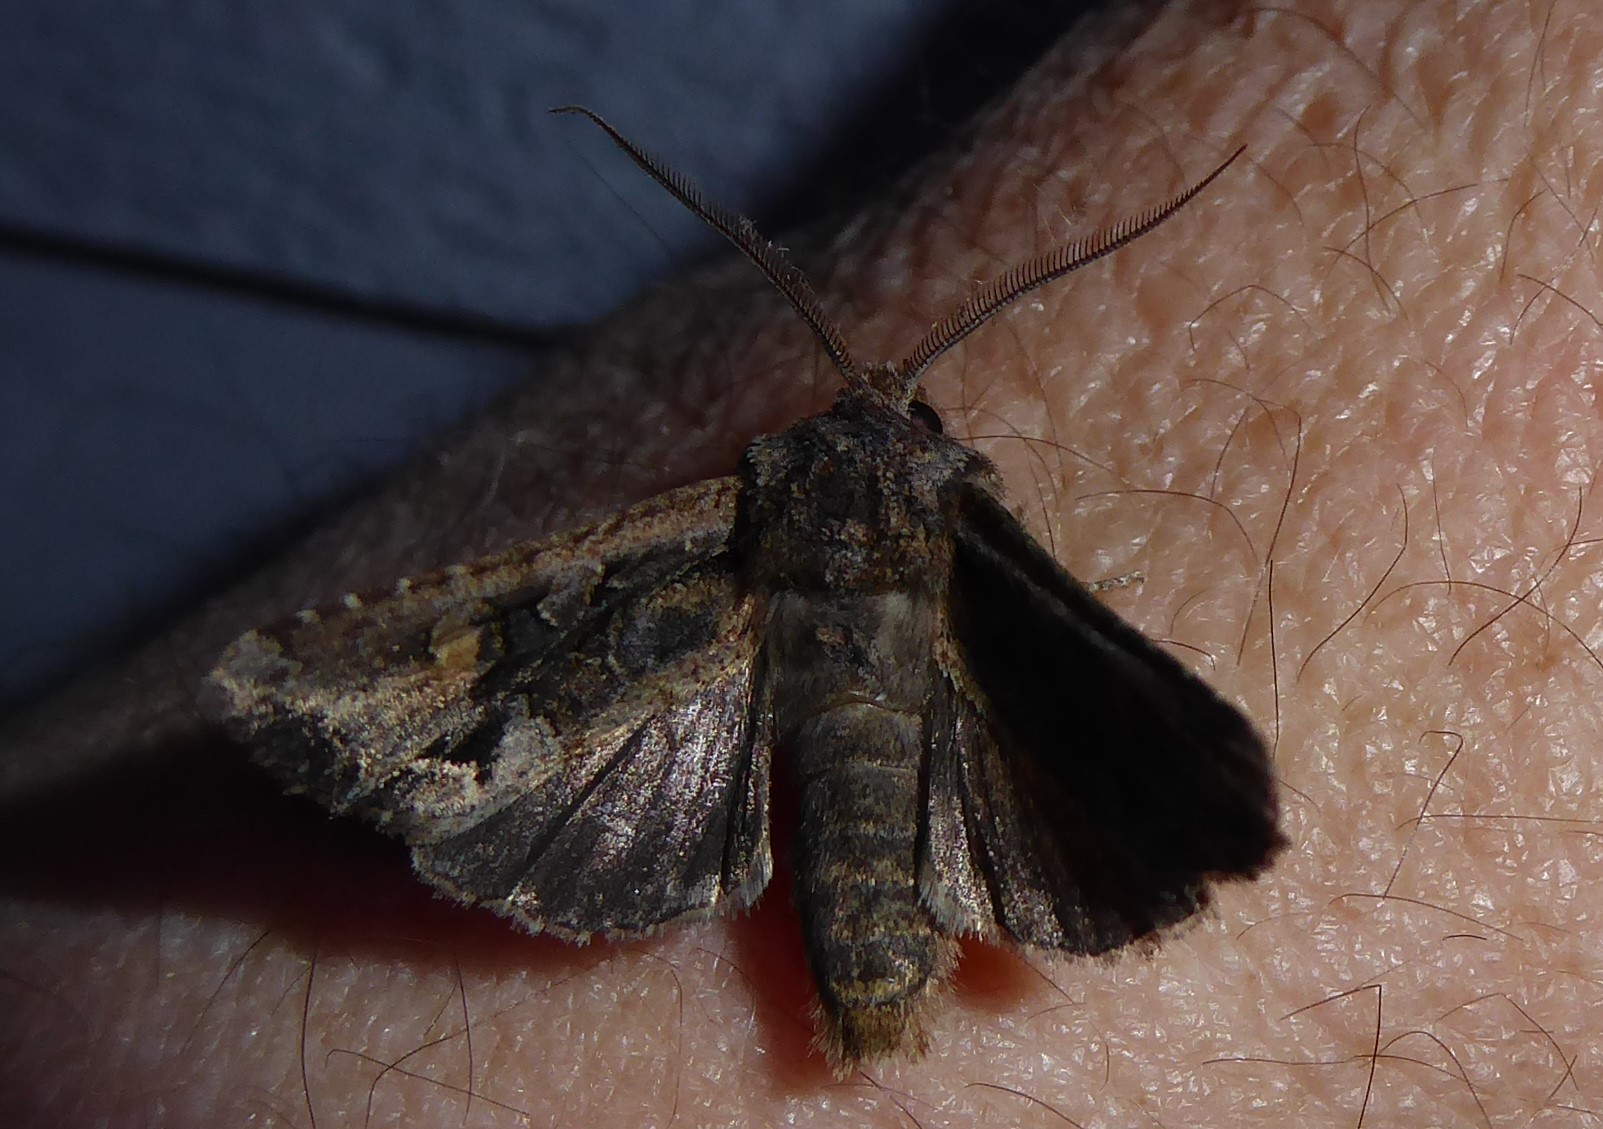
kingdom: Animalia
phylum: Arthropoda
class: Insecta
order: Lepidoptera
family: Noctuidae
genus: Ichneutica
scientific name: Ichneutica mutans
